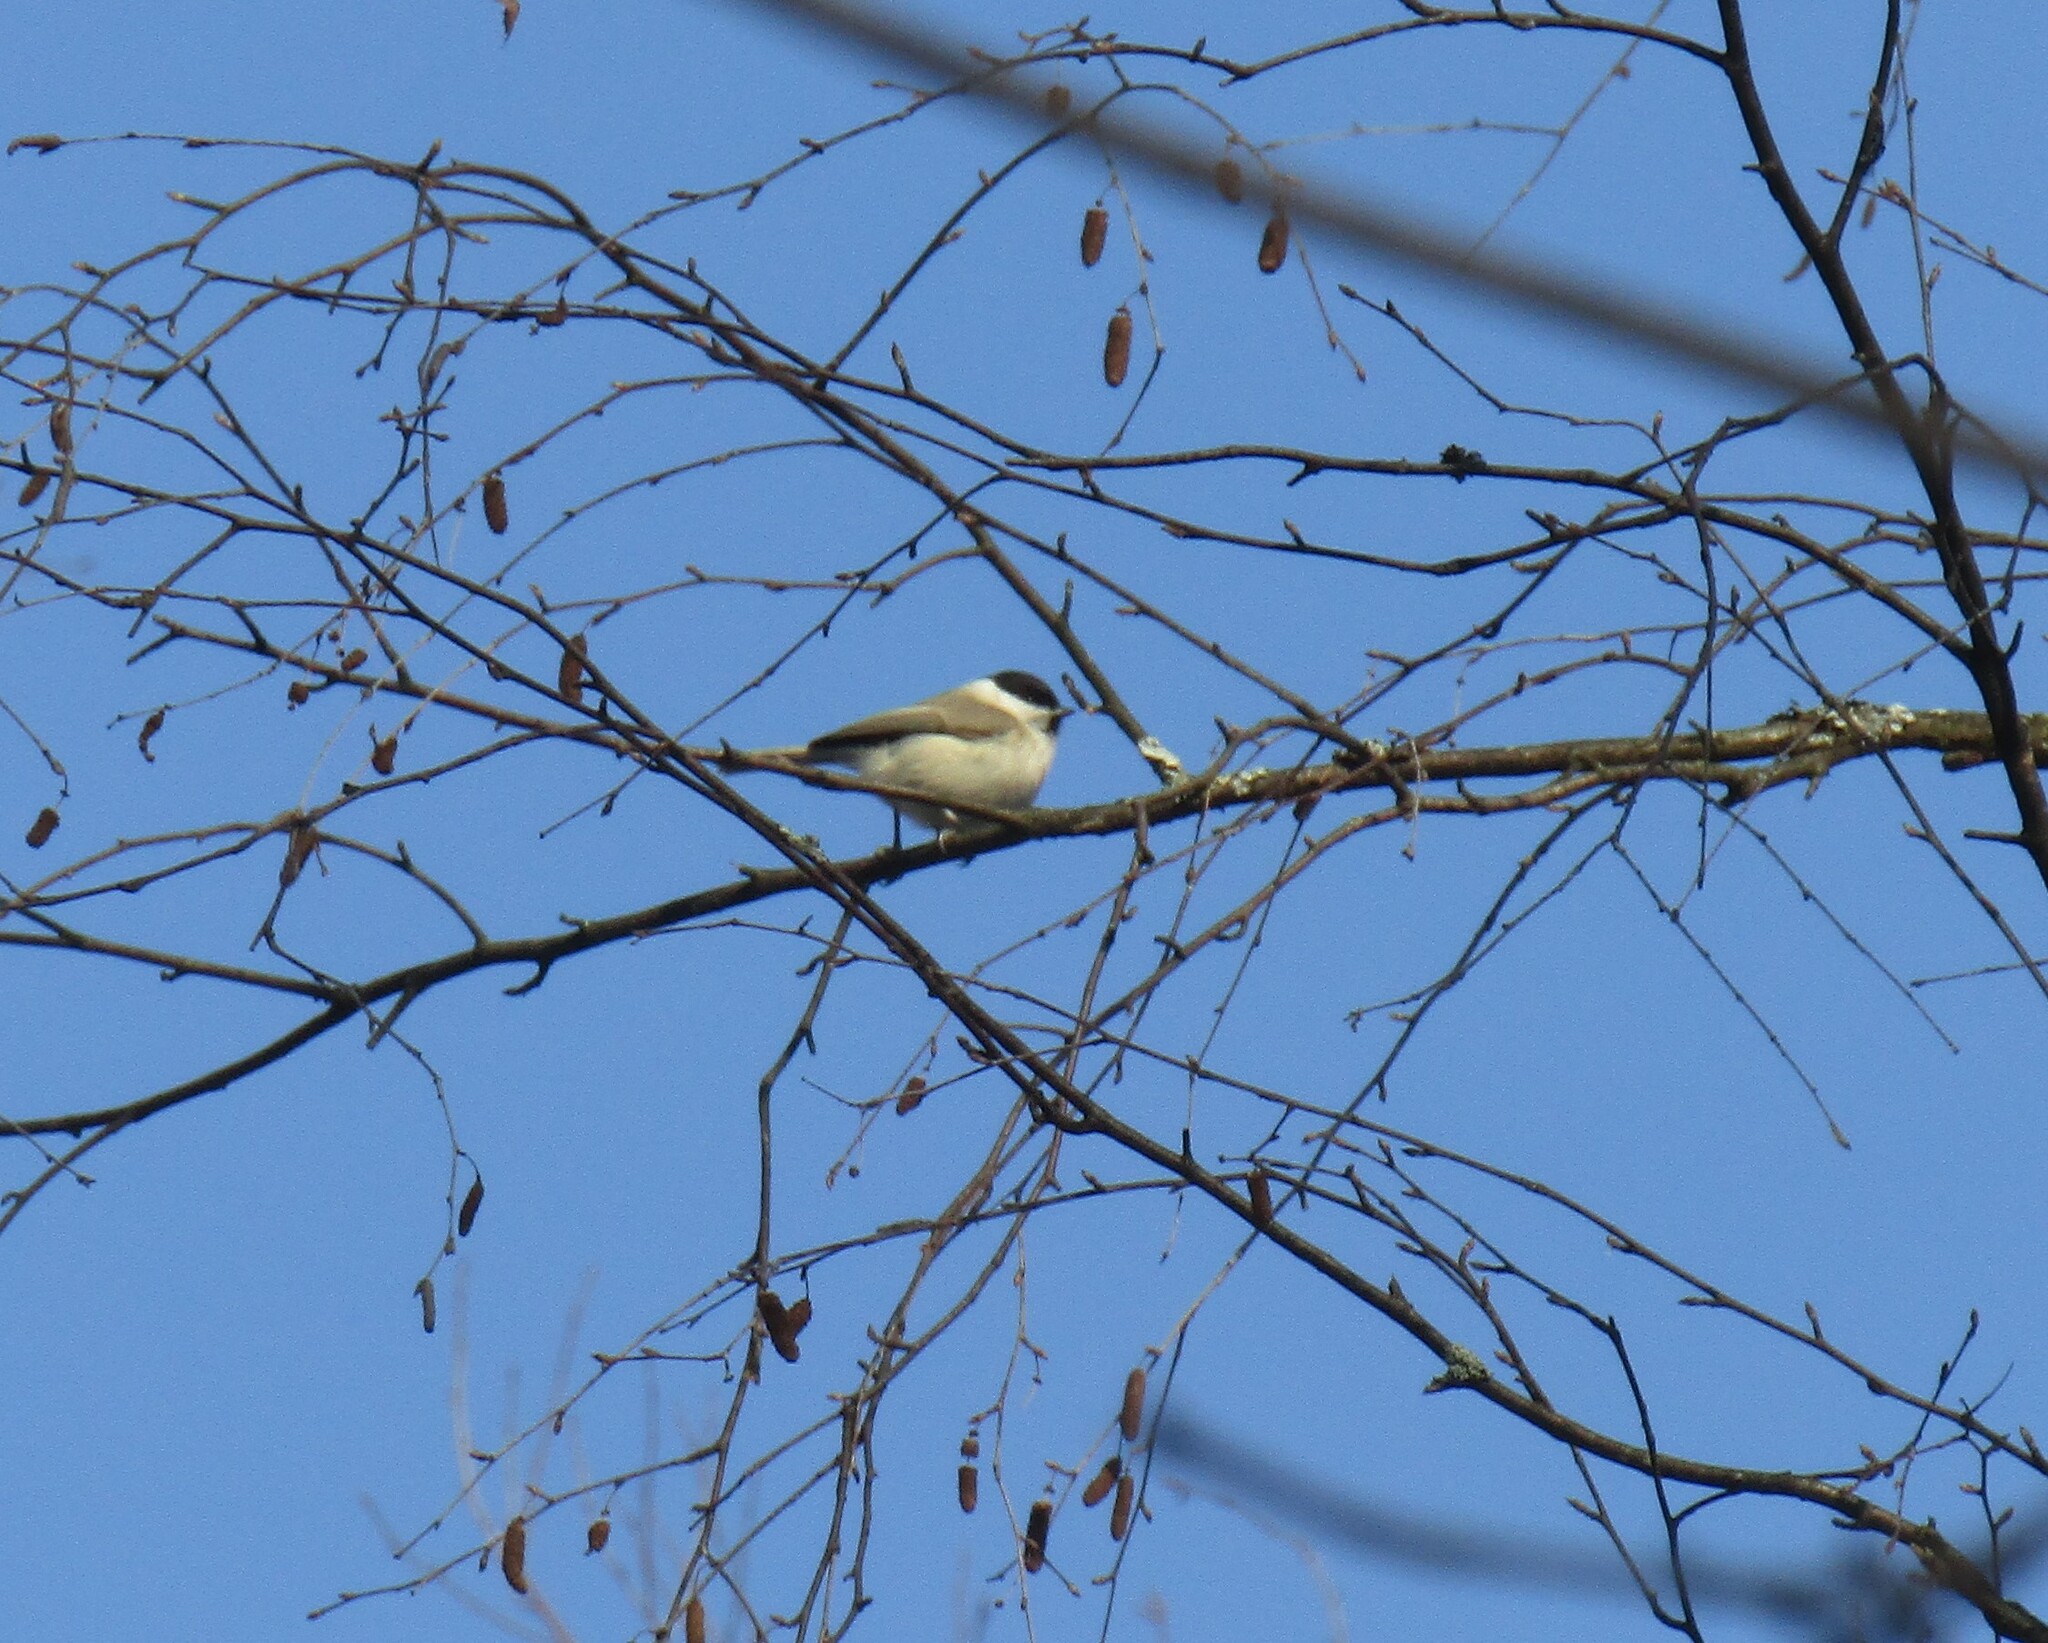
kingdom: Animalia
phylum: Chordata
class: Aves
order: Passeriformes
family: Paridae
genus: Poecile
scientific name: Poecile palustris
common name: Marsh tit
